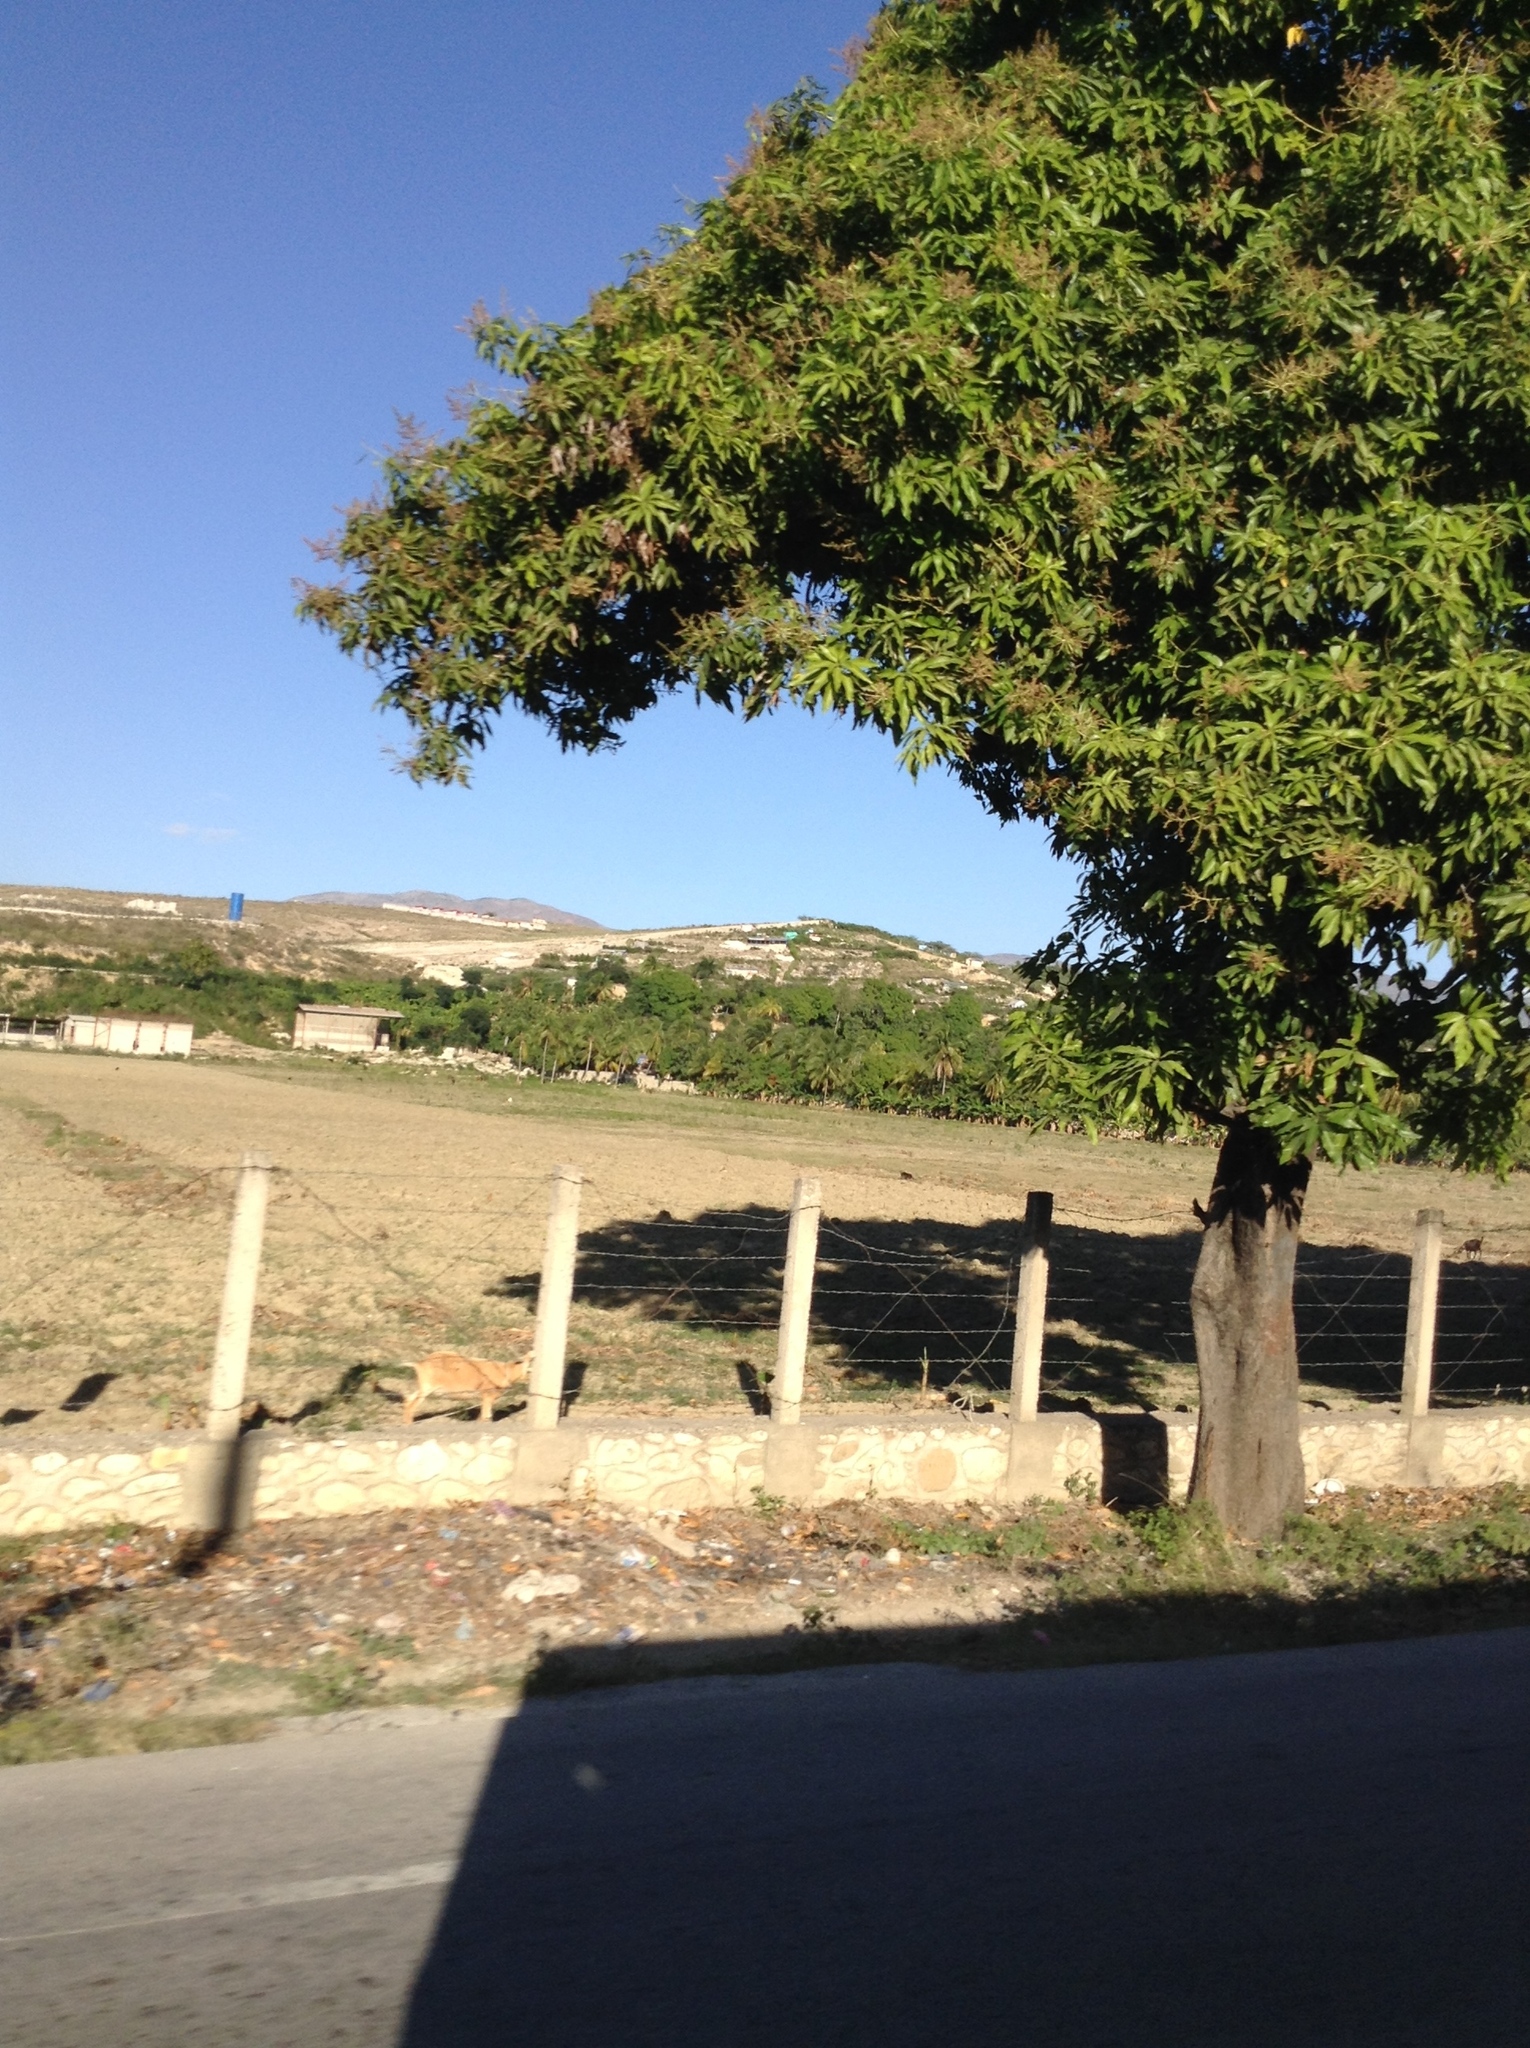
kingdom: Plantae
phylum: Tracheophyta
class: Magnoliopsida
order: Sapindales
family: Anacardiaceae
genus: Mangifera
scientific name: Mangifera indica
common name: Mango
